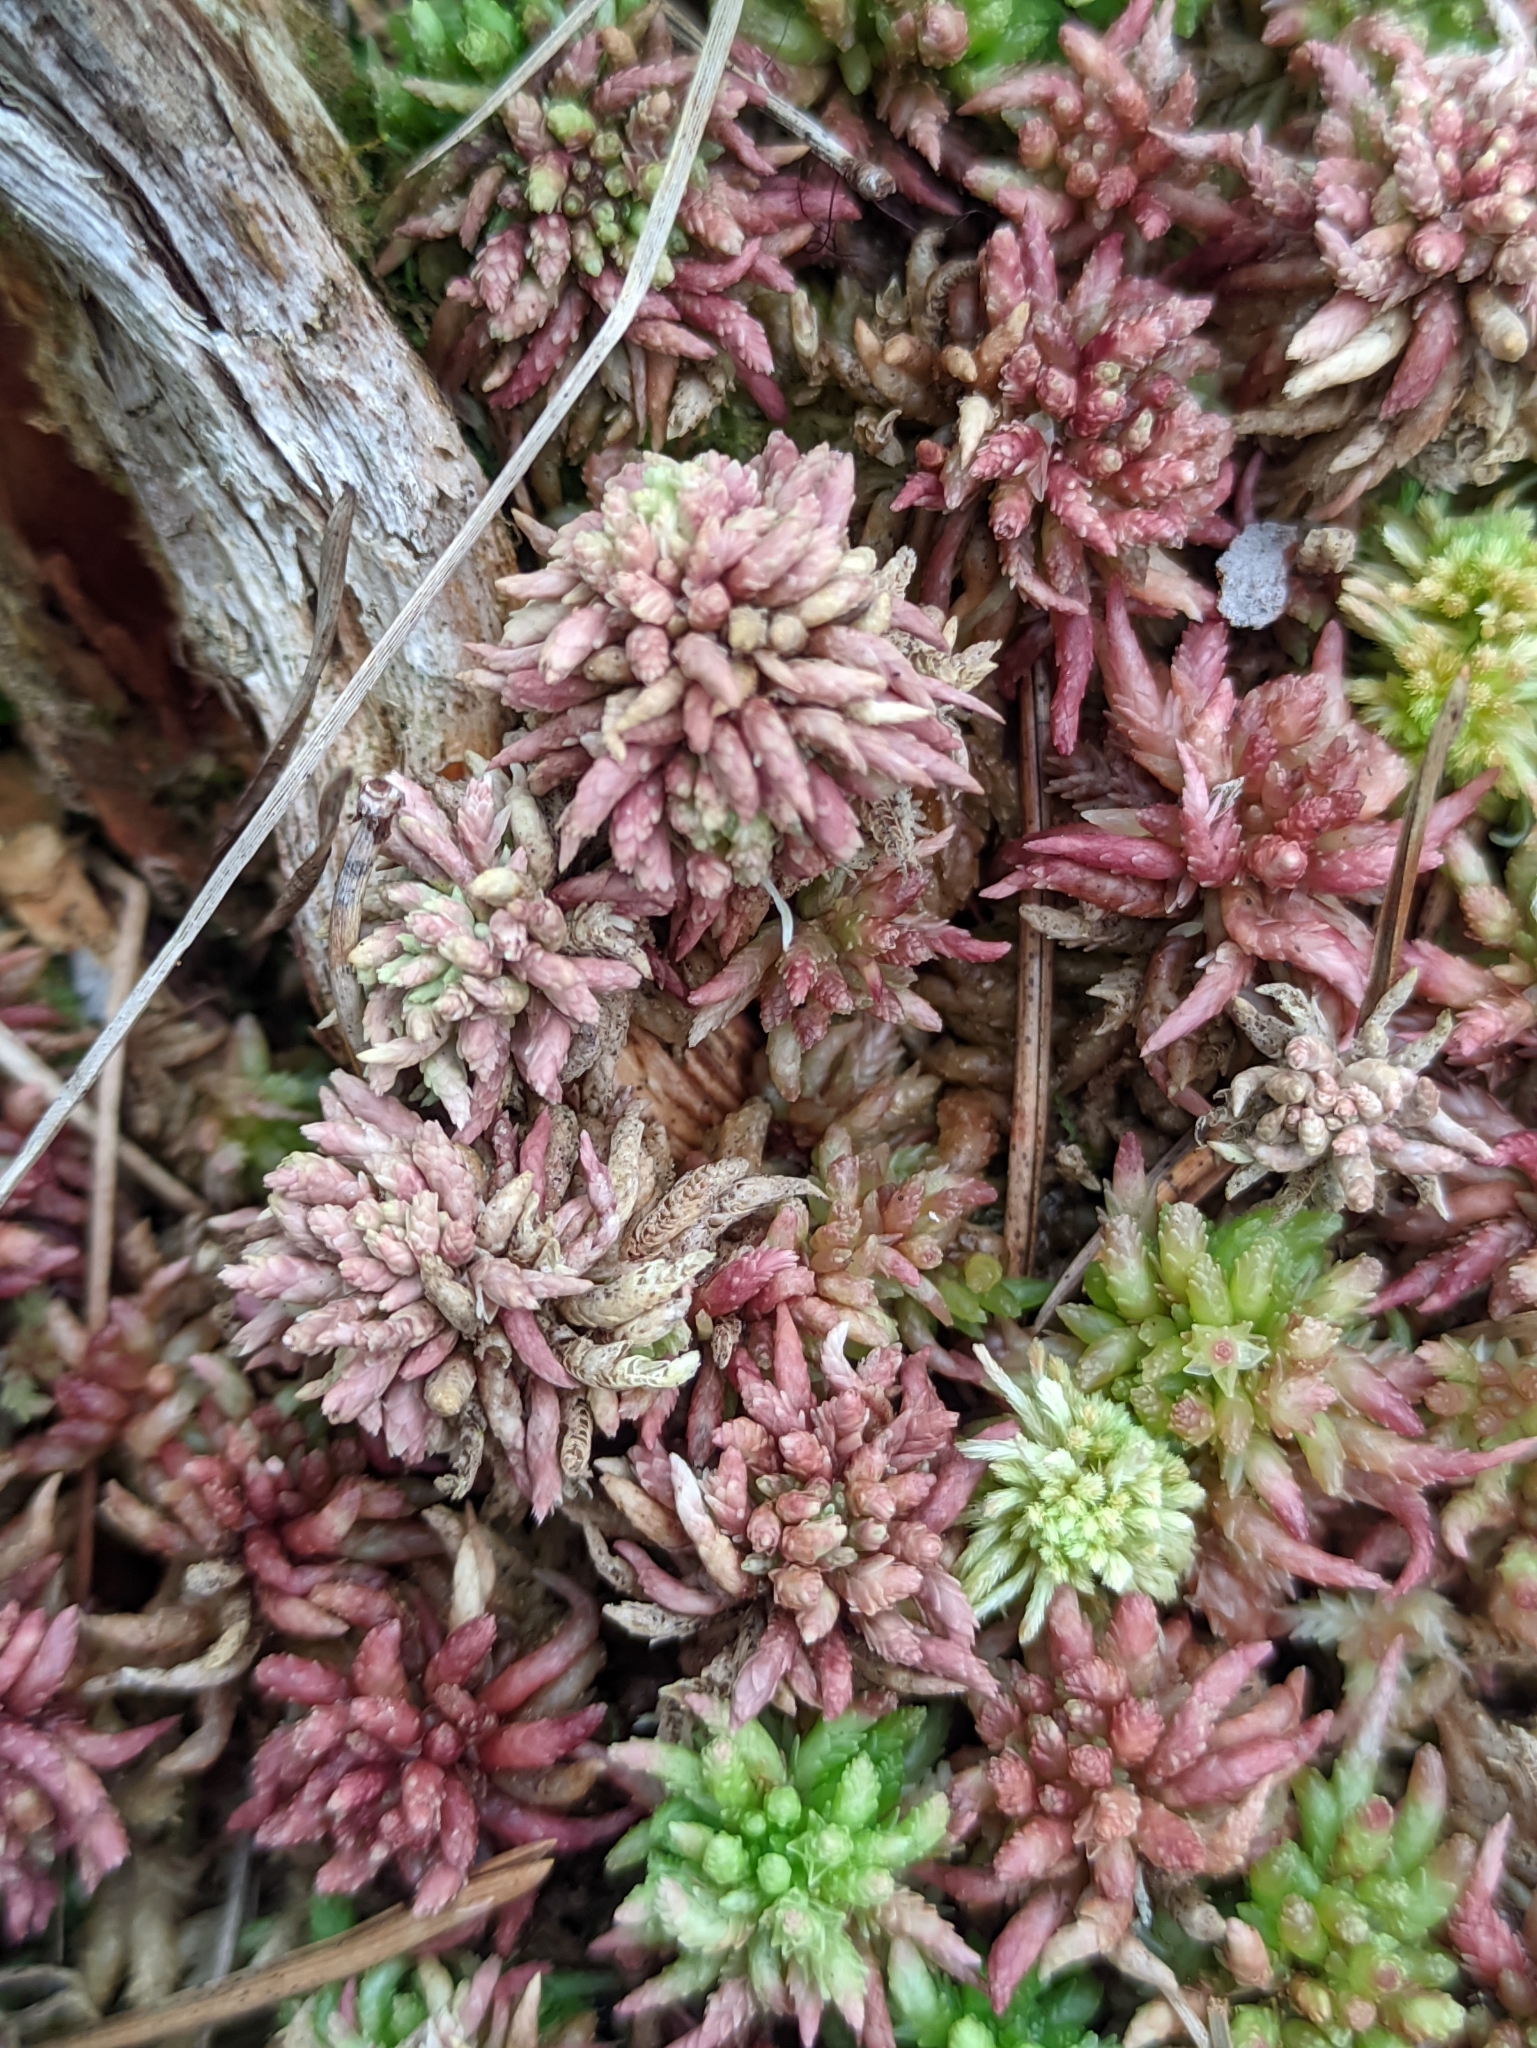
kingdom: Plantae
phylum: Bryophyta
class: Sphagnopsida
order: Sphagnales
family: Sphagnaceae
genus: Sphagnum
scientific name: Sphagnum divinum
